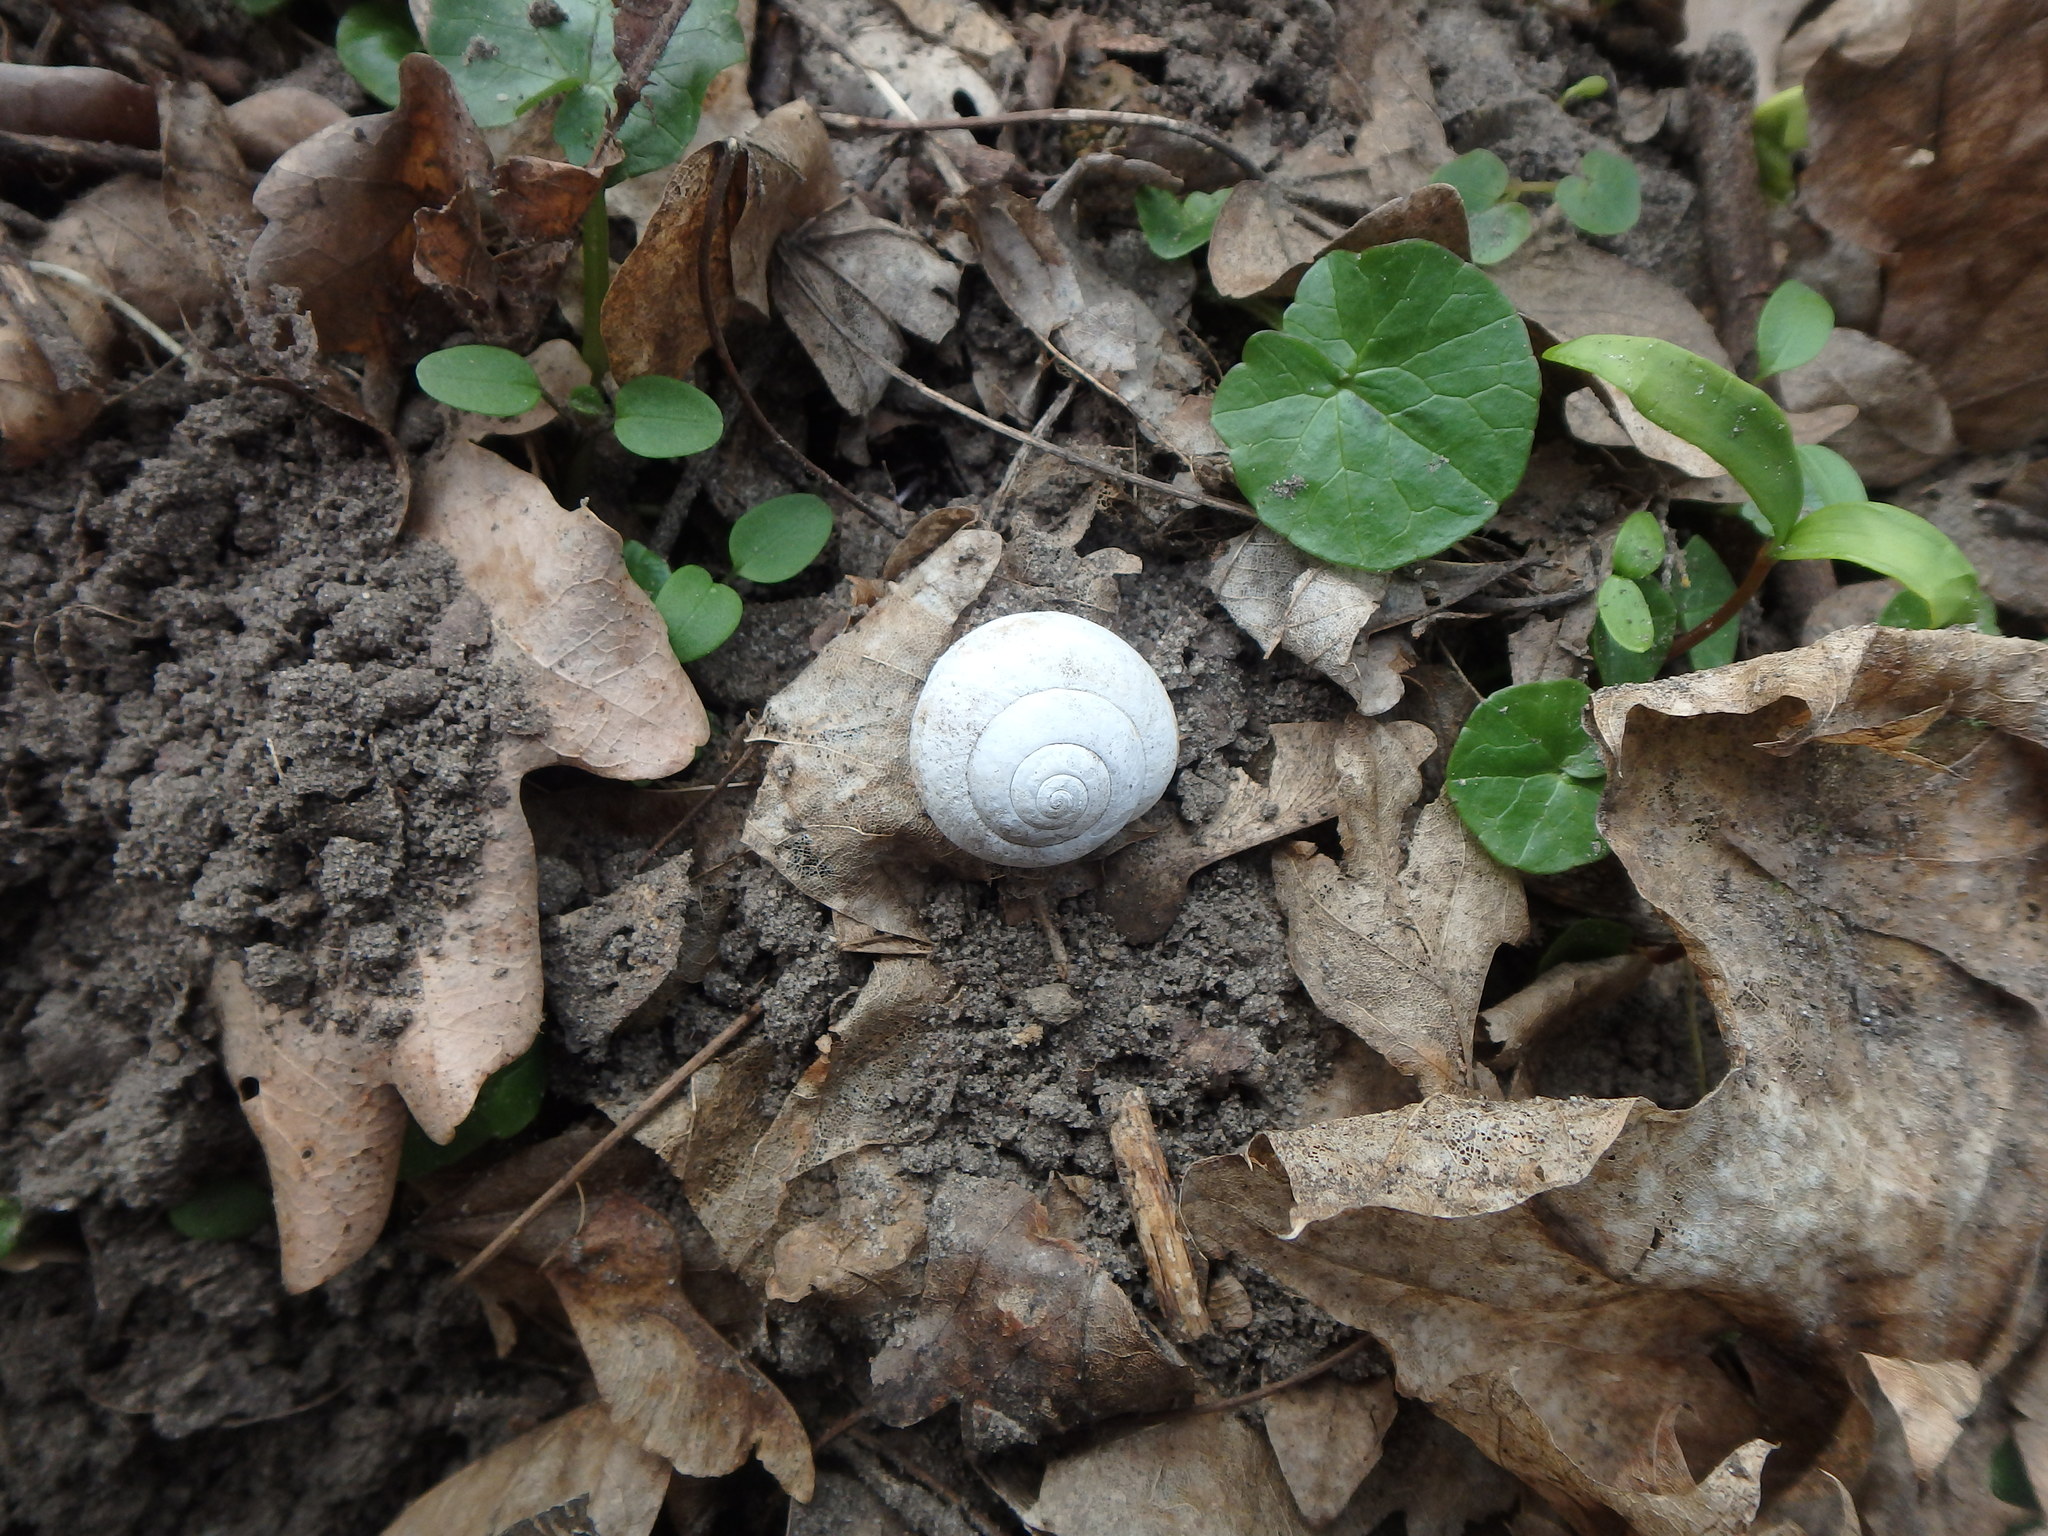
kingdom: Animalia
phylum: Mollusca
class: Gastropoda
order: Stylommatophora
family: Helicidae
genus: Helix
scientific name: Helix pomatia
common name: Roman snail
